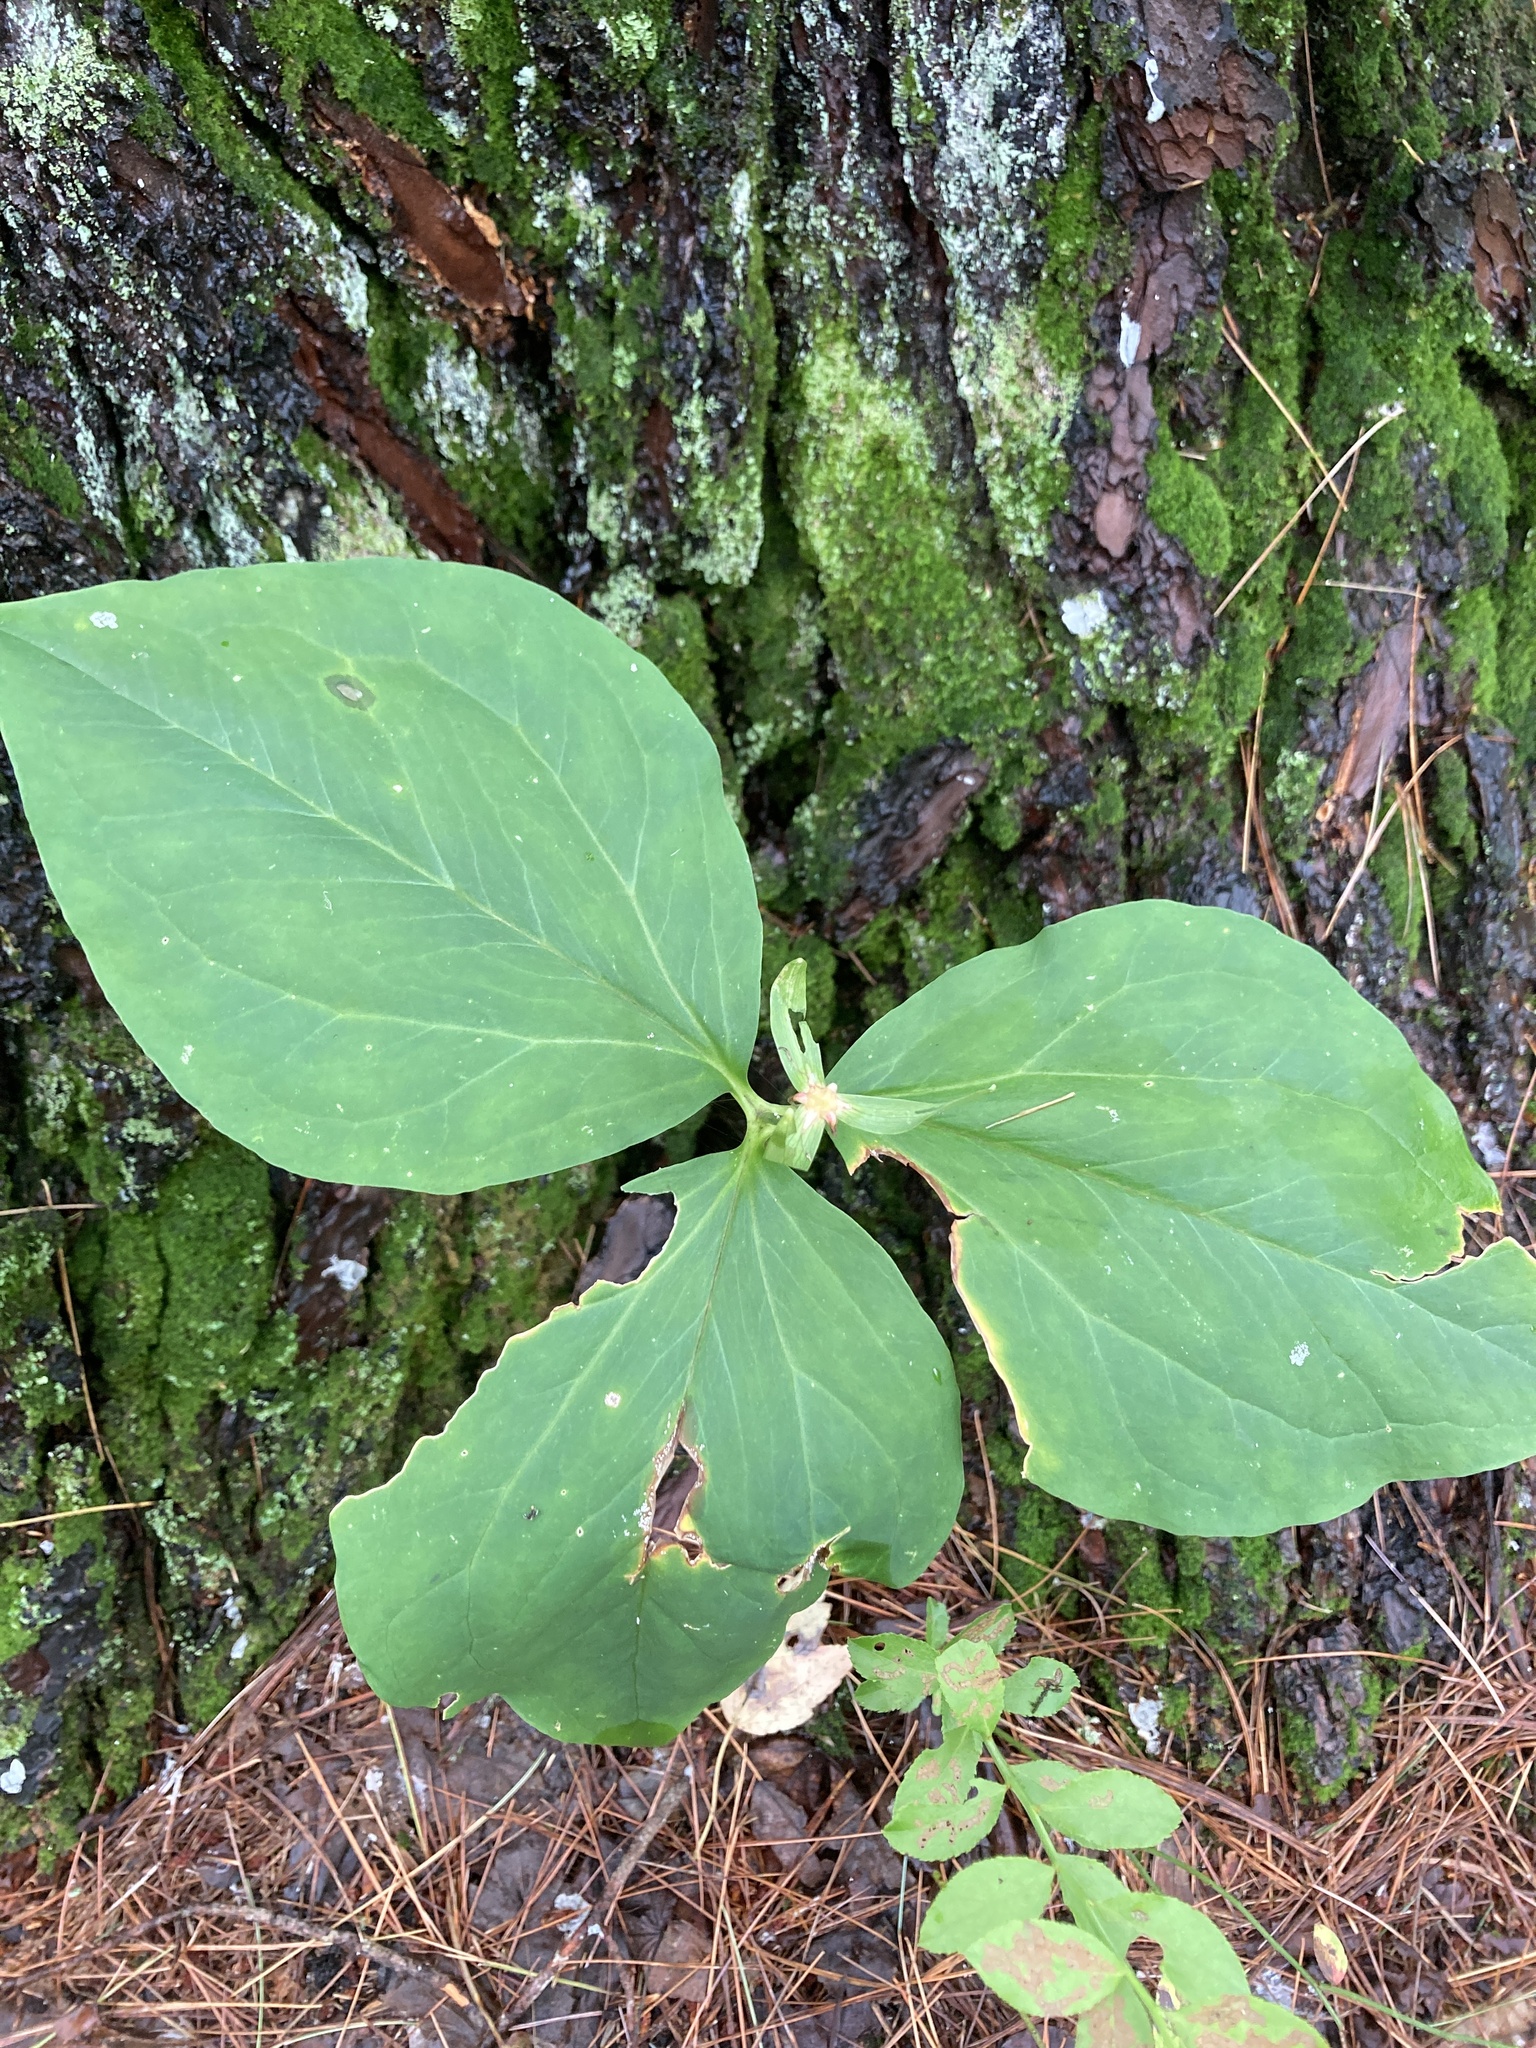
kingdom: Plantae
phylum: Tracheophyta
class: Liliopsida
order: Liliales
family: Melanthiaceae
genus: Trillium
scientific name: Trillium undulatum
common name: Paint trillium
